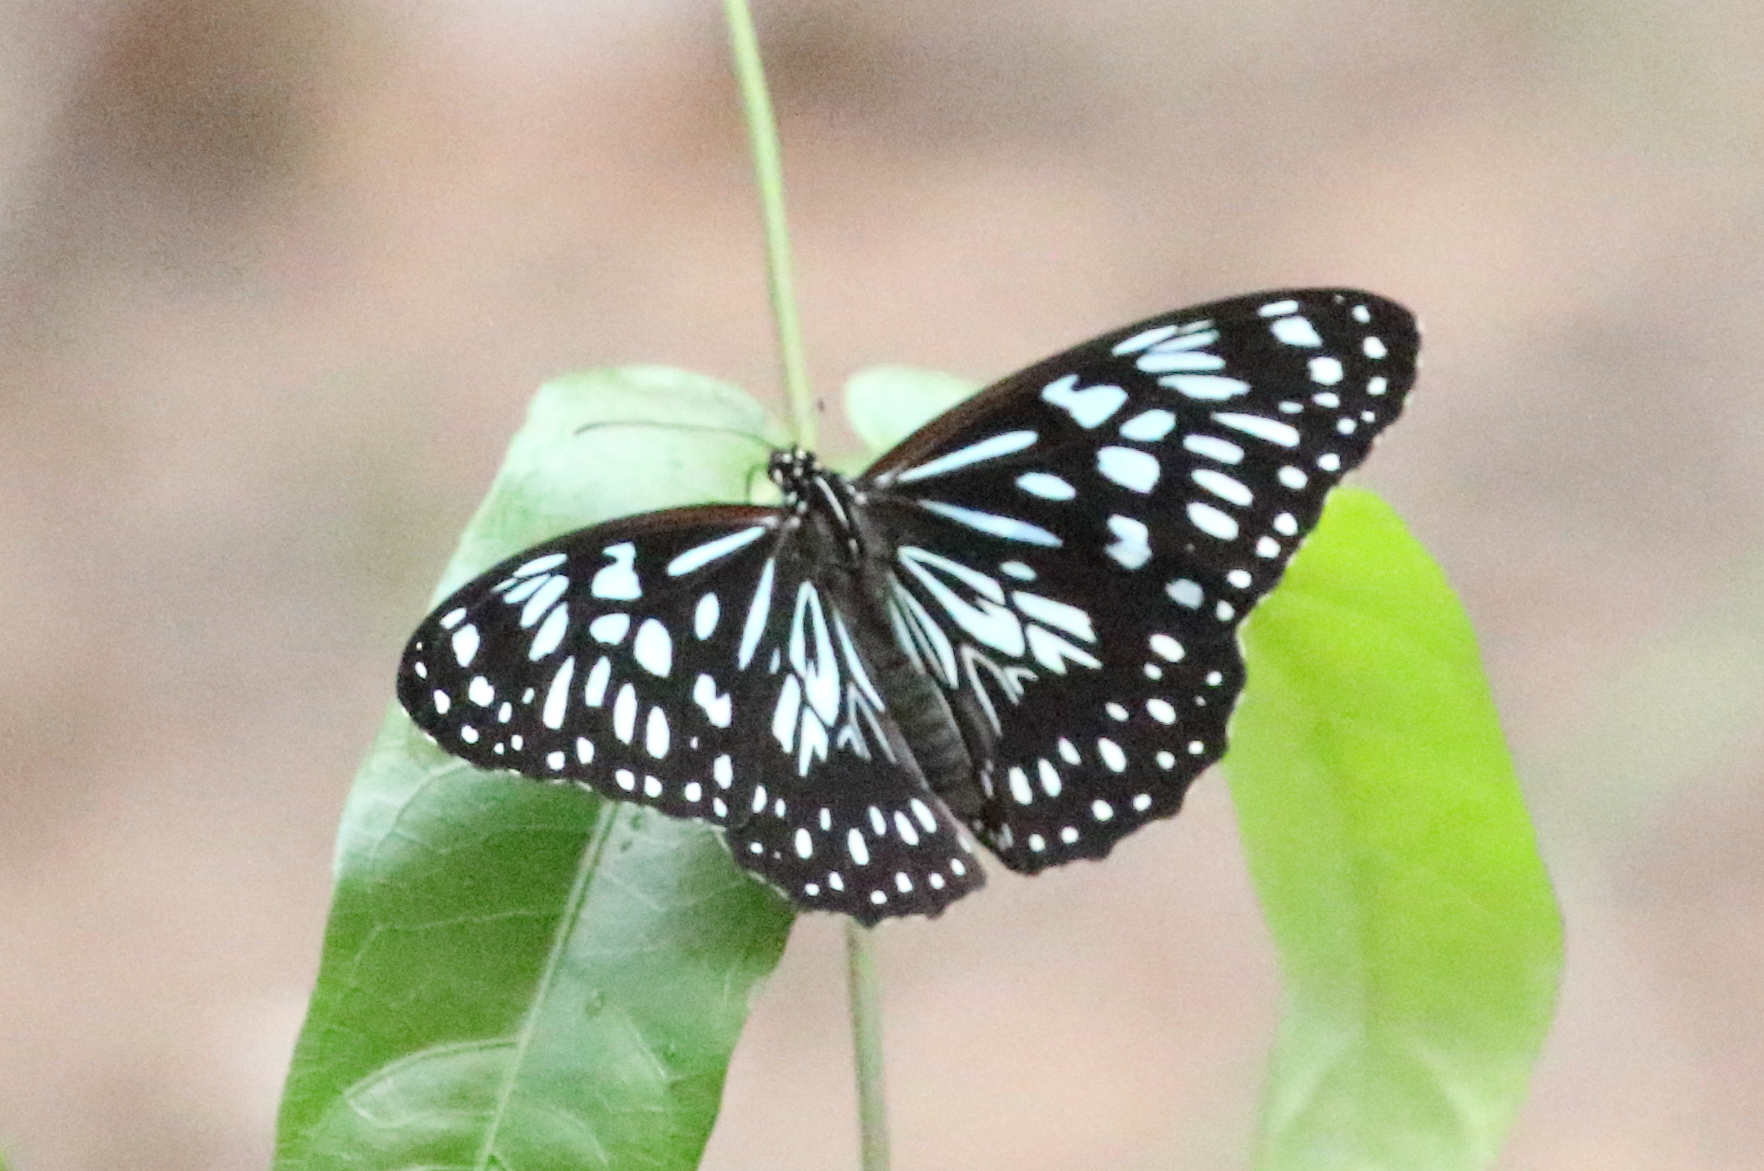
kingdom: Animalia
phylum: Arthropoda
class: Insecta
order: Lepidoptera
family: Nymphalidae
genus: Tirumala
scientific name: Tirumala hamata
